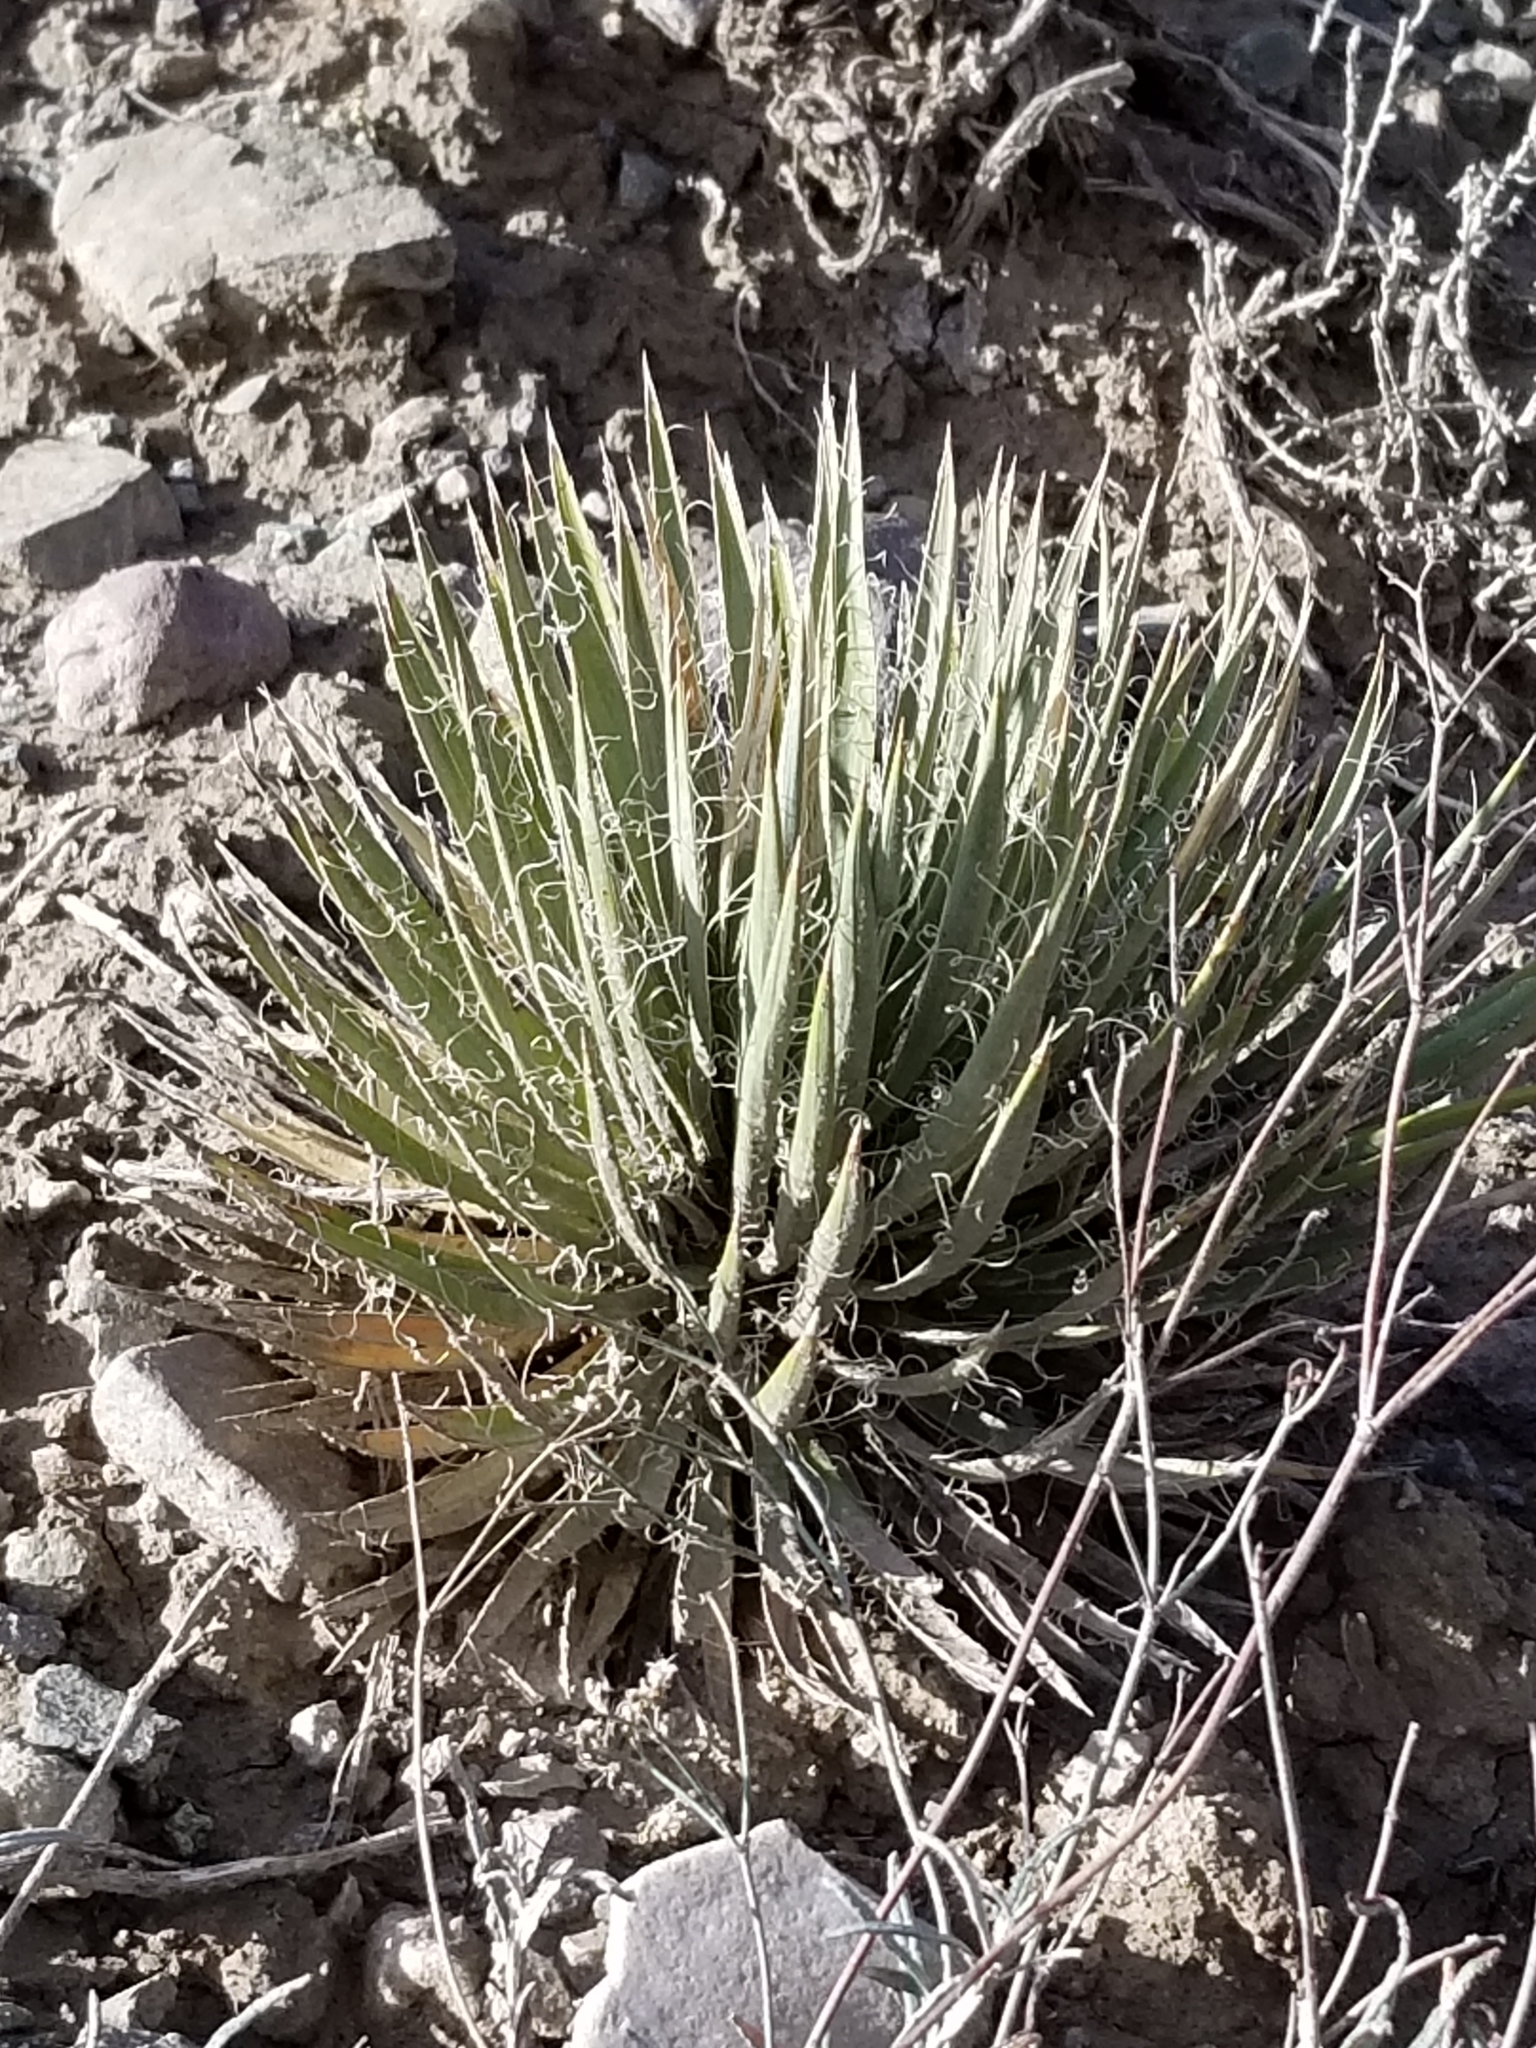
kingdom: Plantae
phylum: Tracheophyta
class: Liliopsida
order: Asparagales
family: Asparagaceae
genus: Yucca
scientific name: Yucca baccata
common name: Banana yucca
